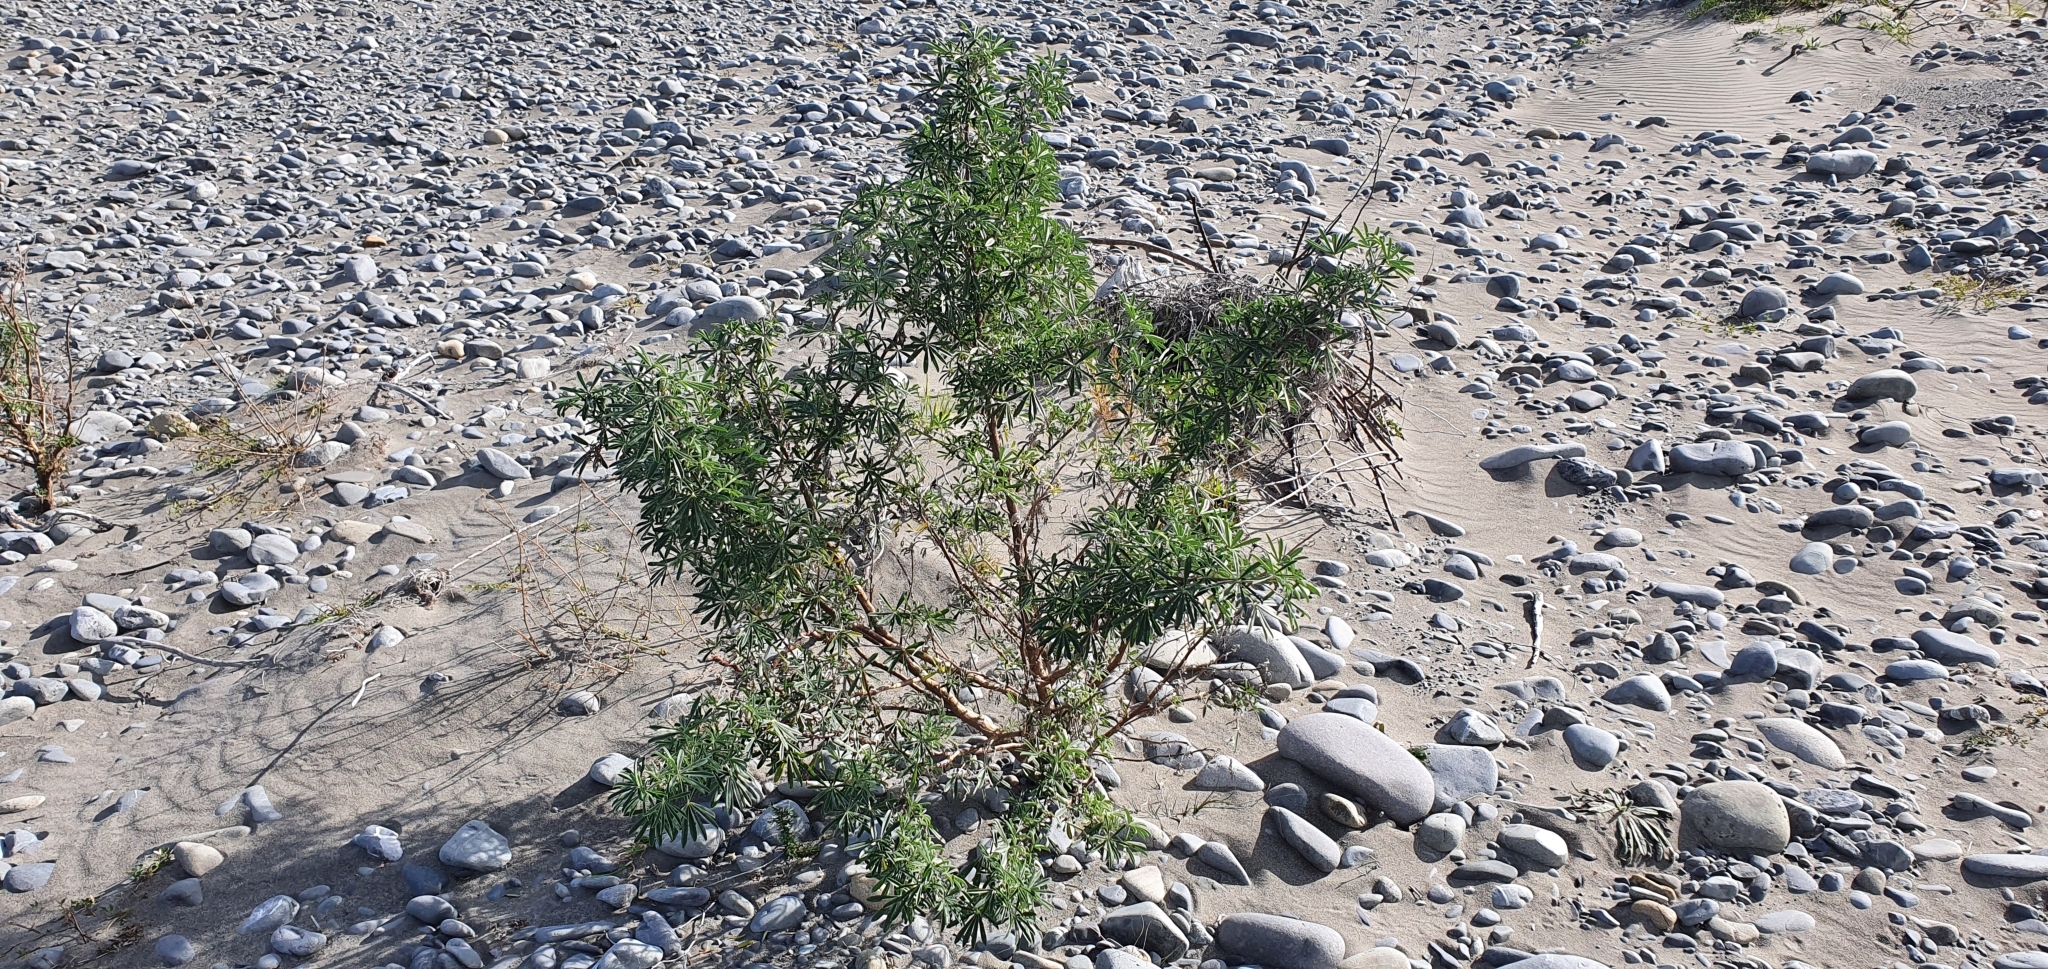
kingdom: Plantae
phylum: Tracheophyta
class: Magnoliopsida
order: Fabales
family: Fabaceae
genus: Lupinus
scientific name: Lupinus arboreus
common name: Yellow bush lupine
